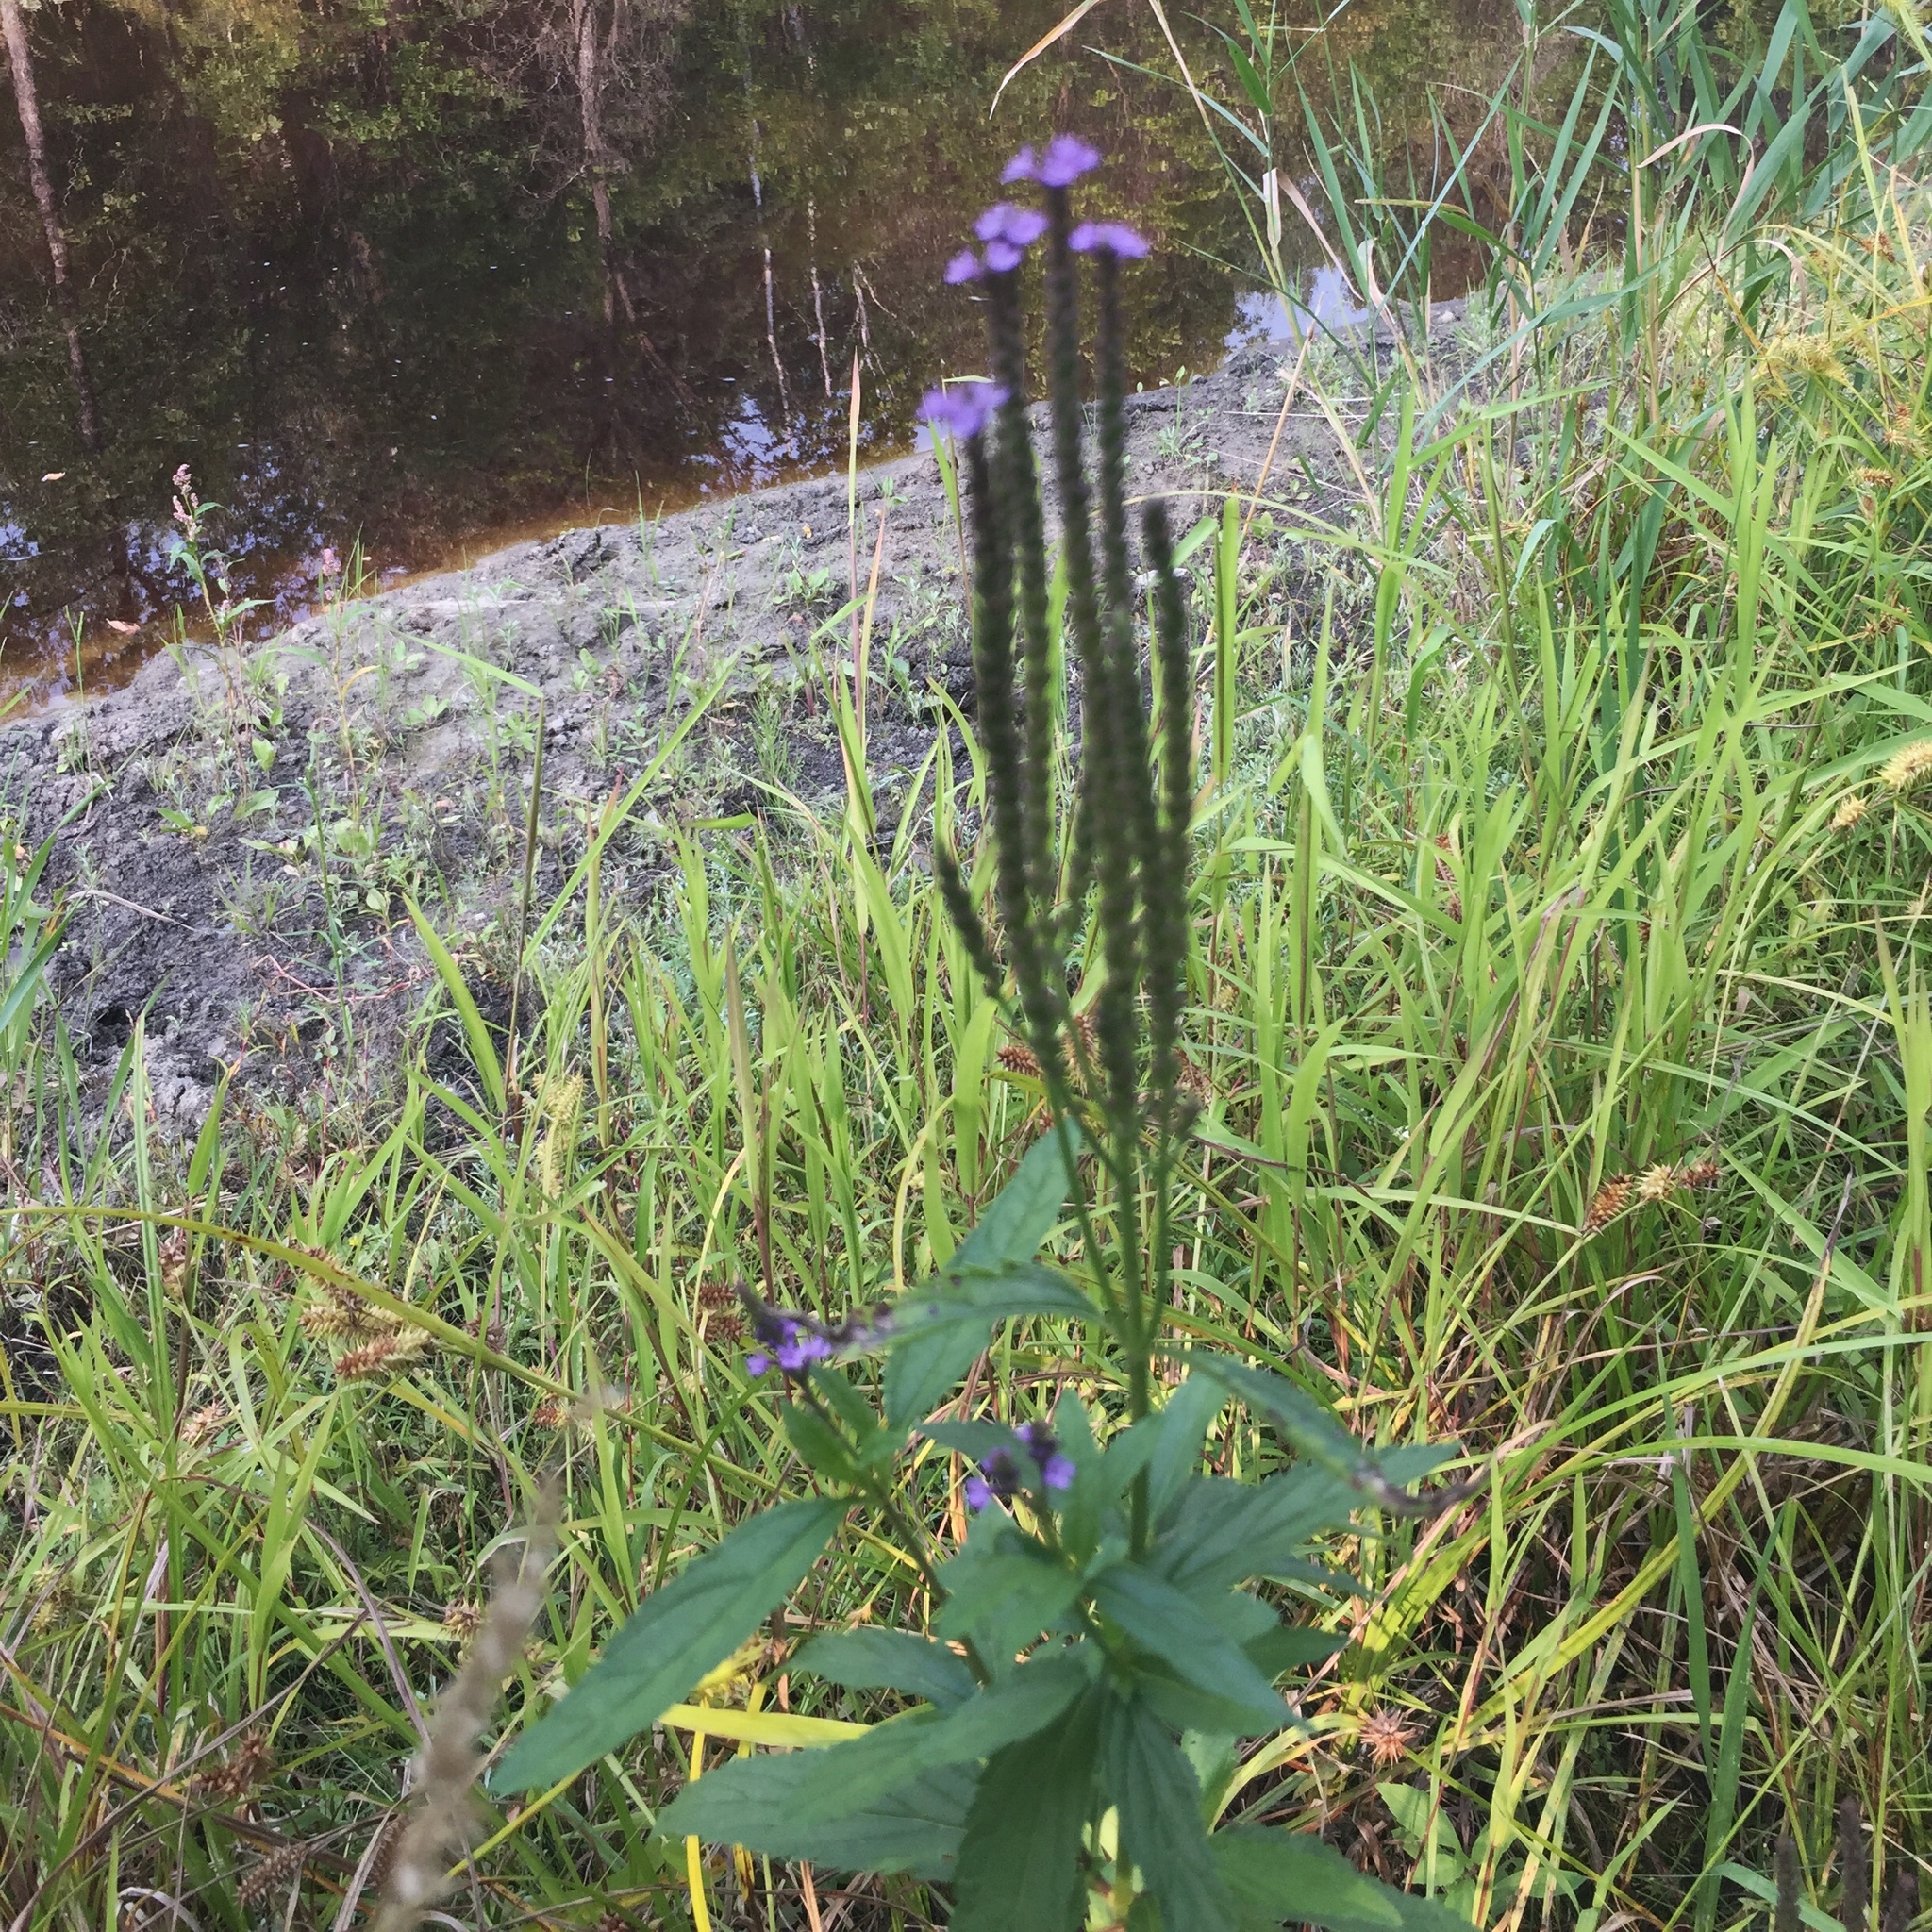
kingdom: Plantae
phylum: Tracheophyta
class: Magnoliopsida
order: Lamiales
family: Verbenaceae
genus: Verbena
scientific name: Verbena hastata
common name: American blue vervain
